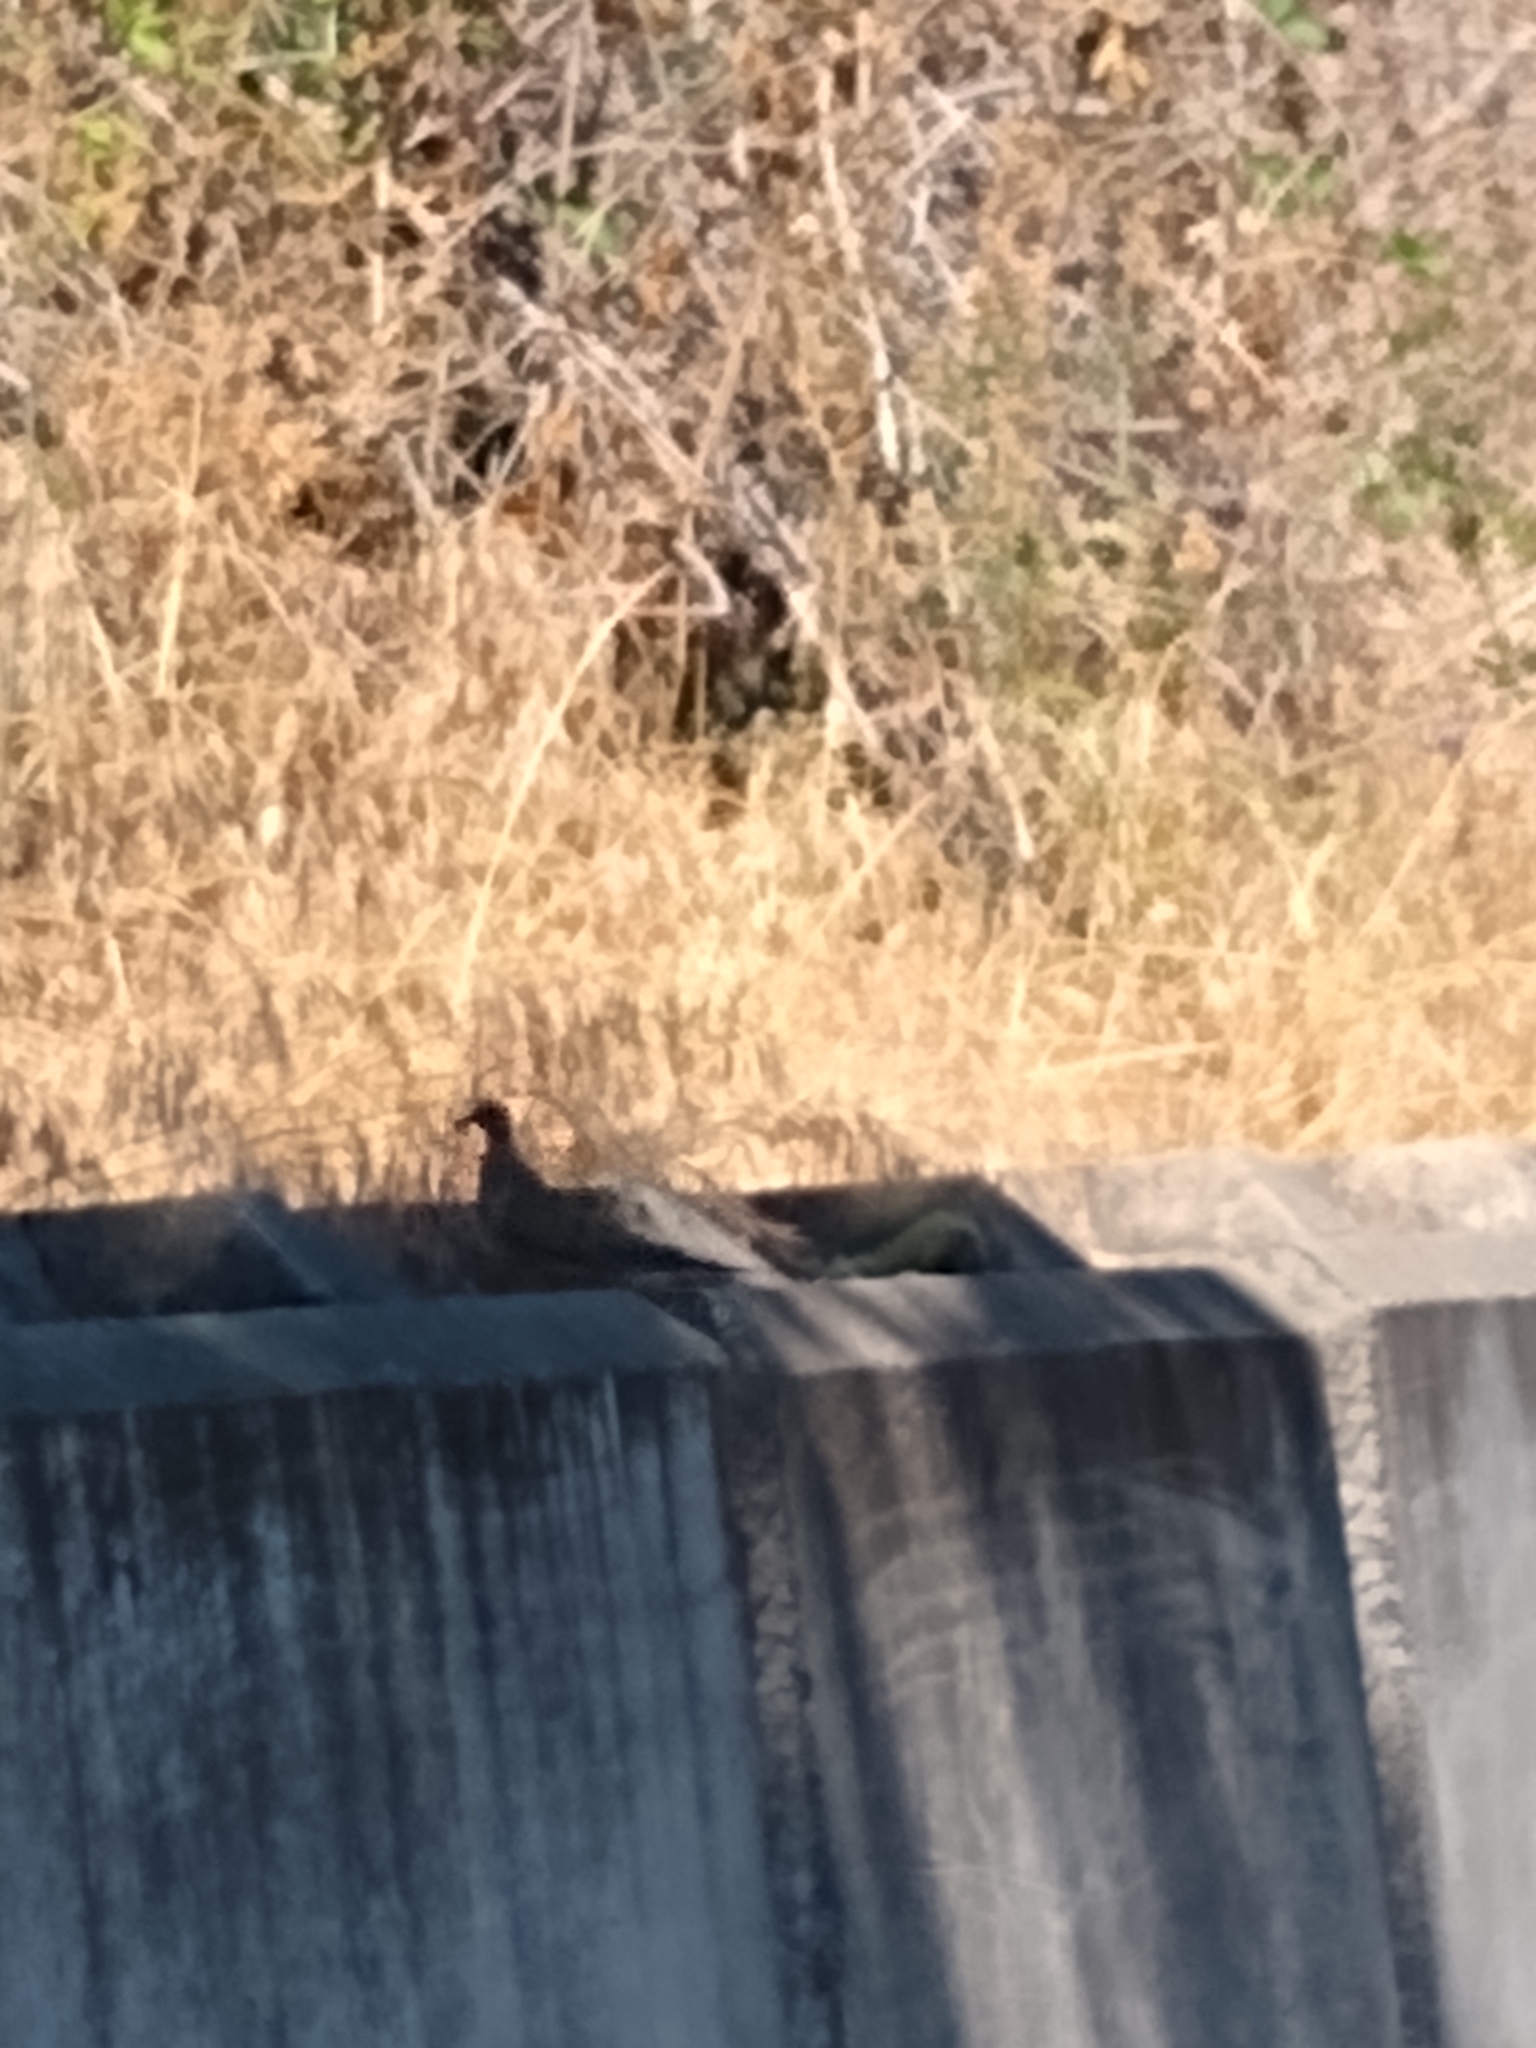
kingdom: Animalia
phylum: Chordata
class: Aves
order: Columbiformes
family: Columbidae
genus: Zenaida
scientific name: Zenaida macroura
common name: Mourning dove
